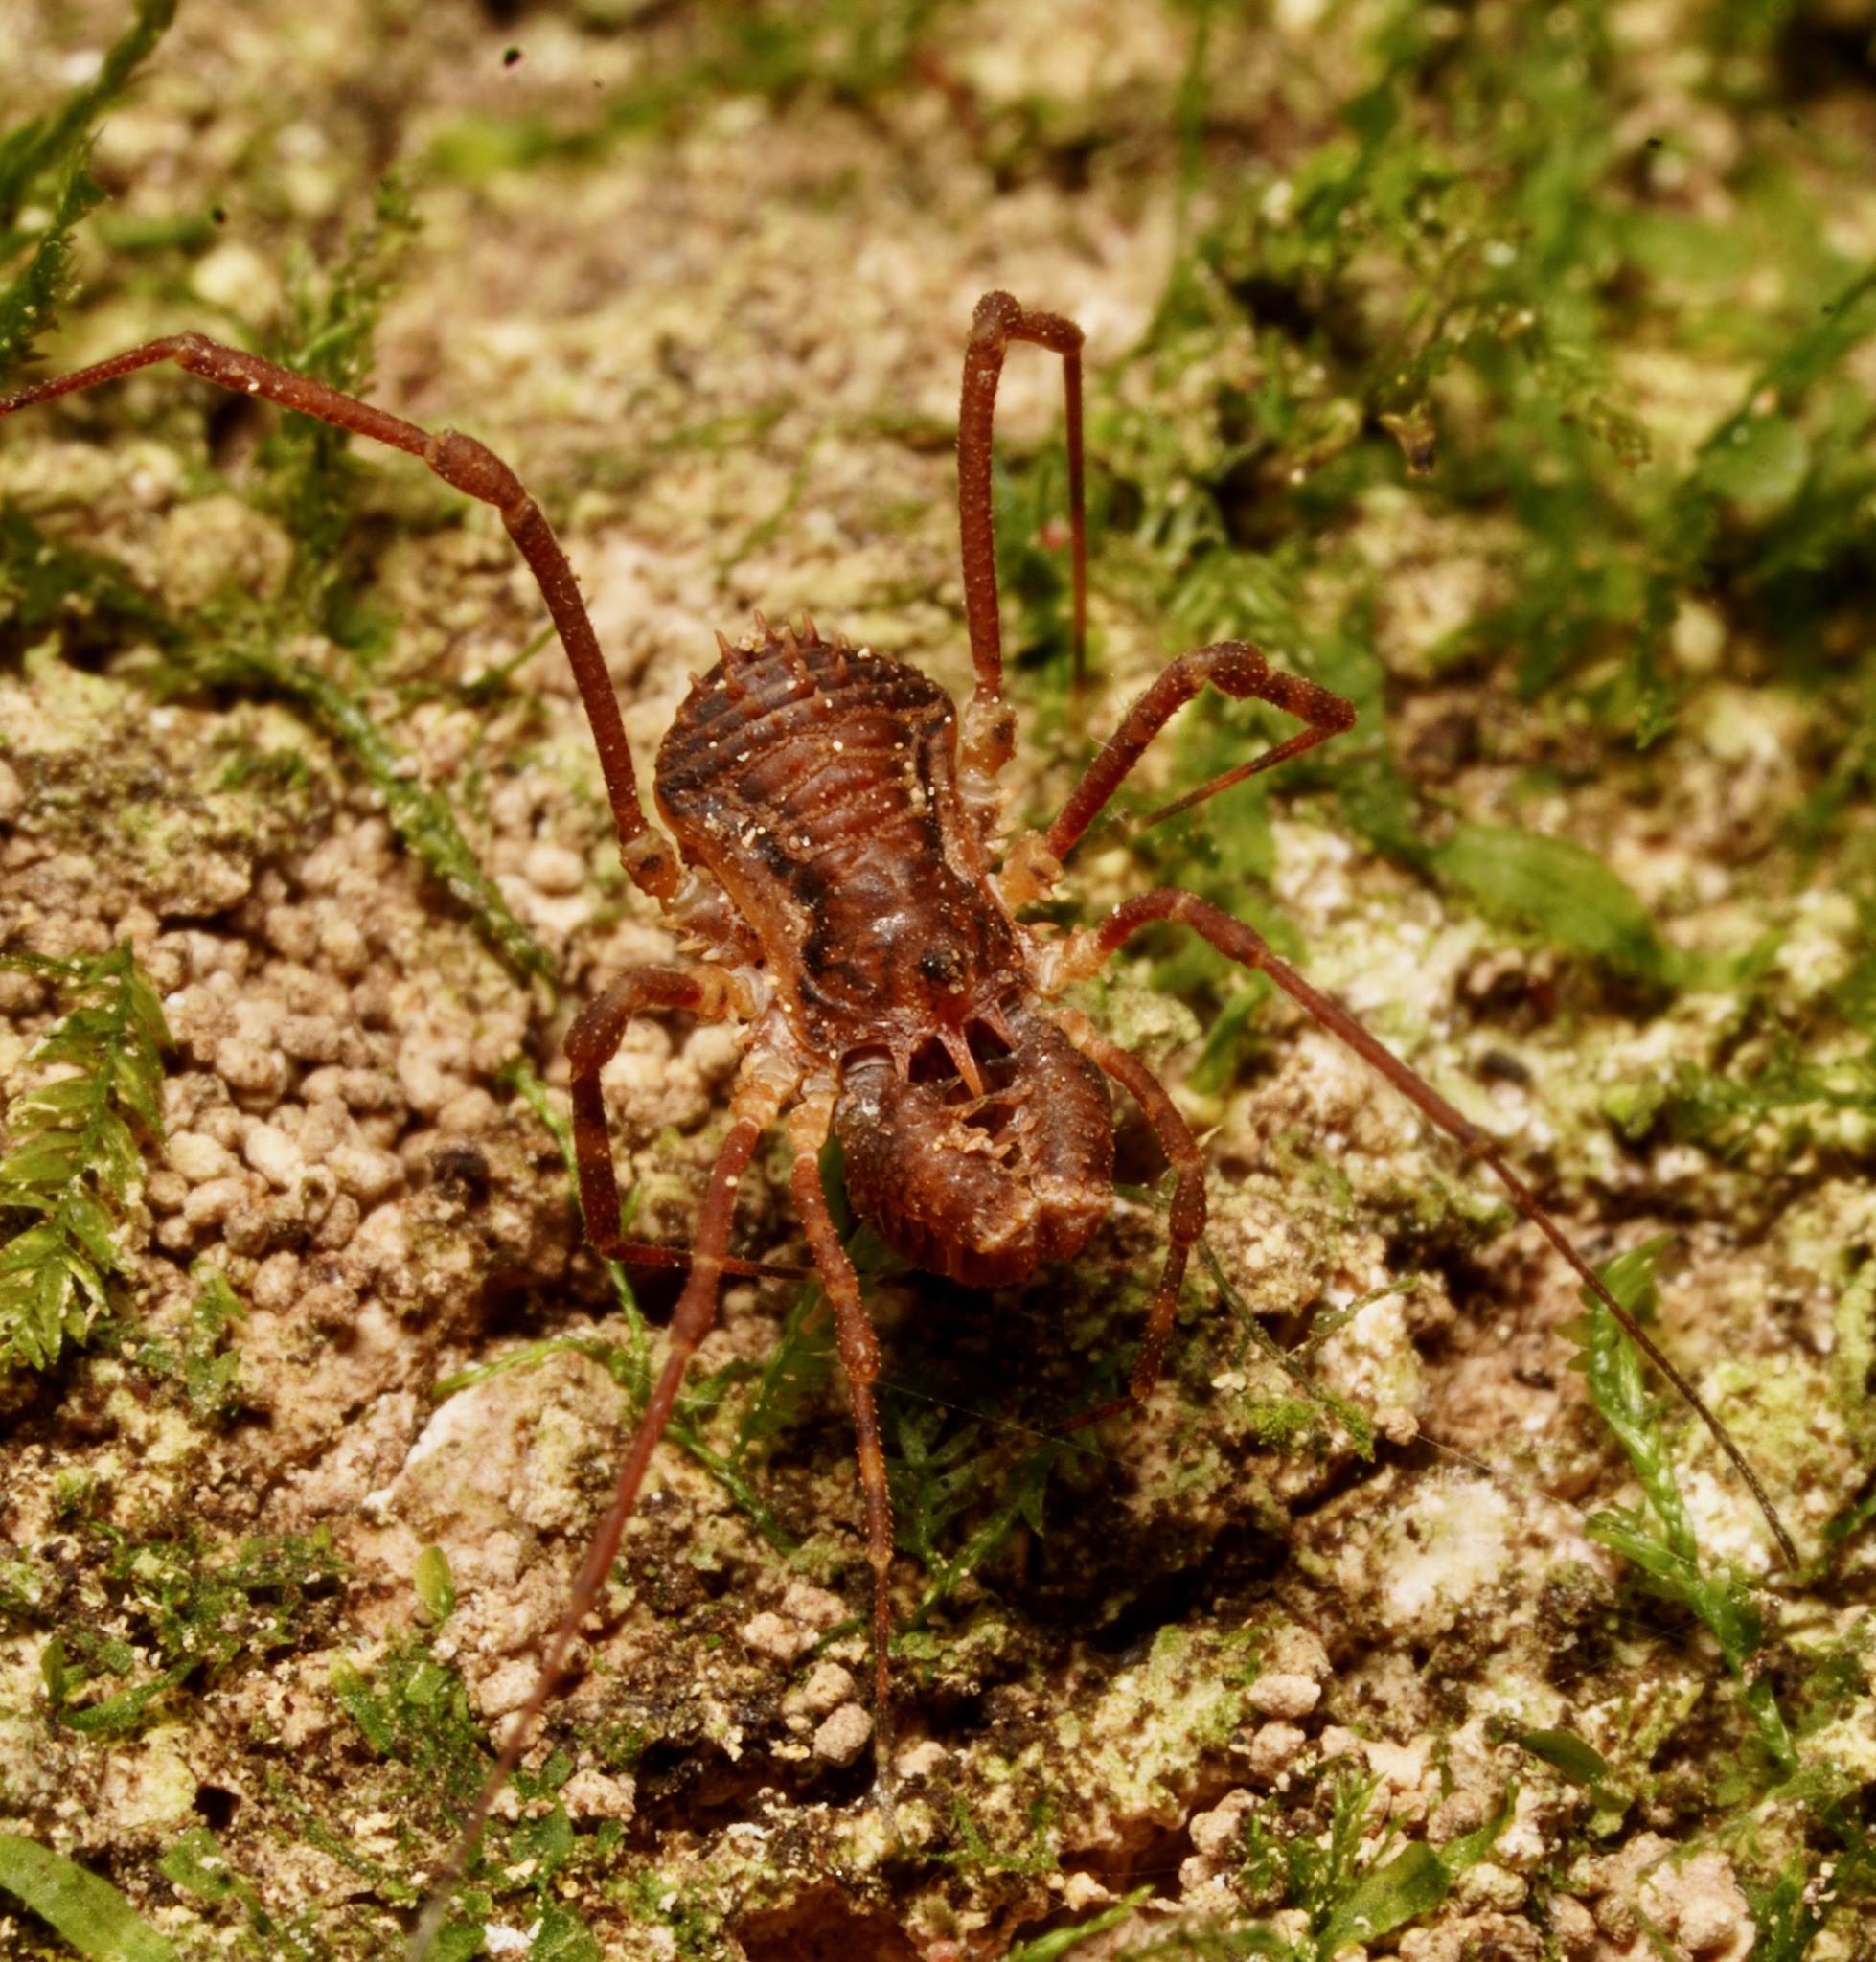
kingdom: Animalia
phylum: Arthropoda
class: Arachnida
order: Opiliones
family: Triaenonychidae
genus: Algidia
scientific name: Algidia chiltoni
